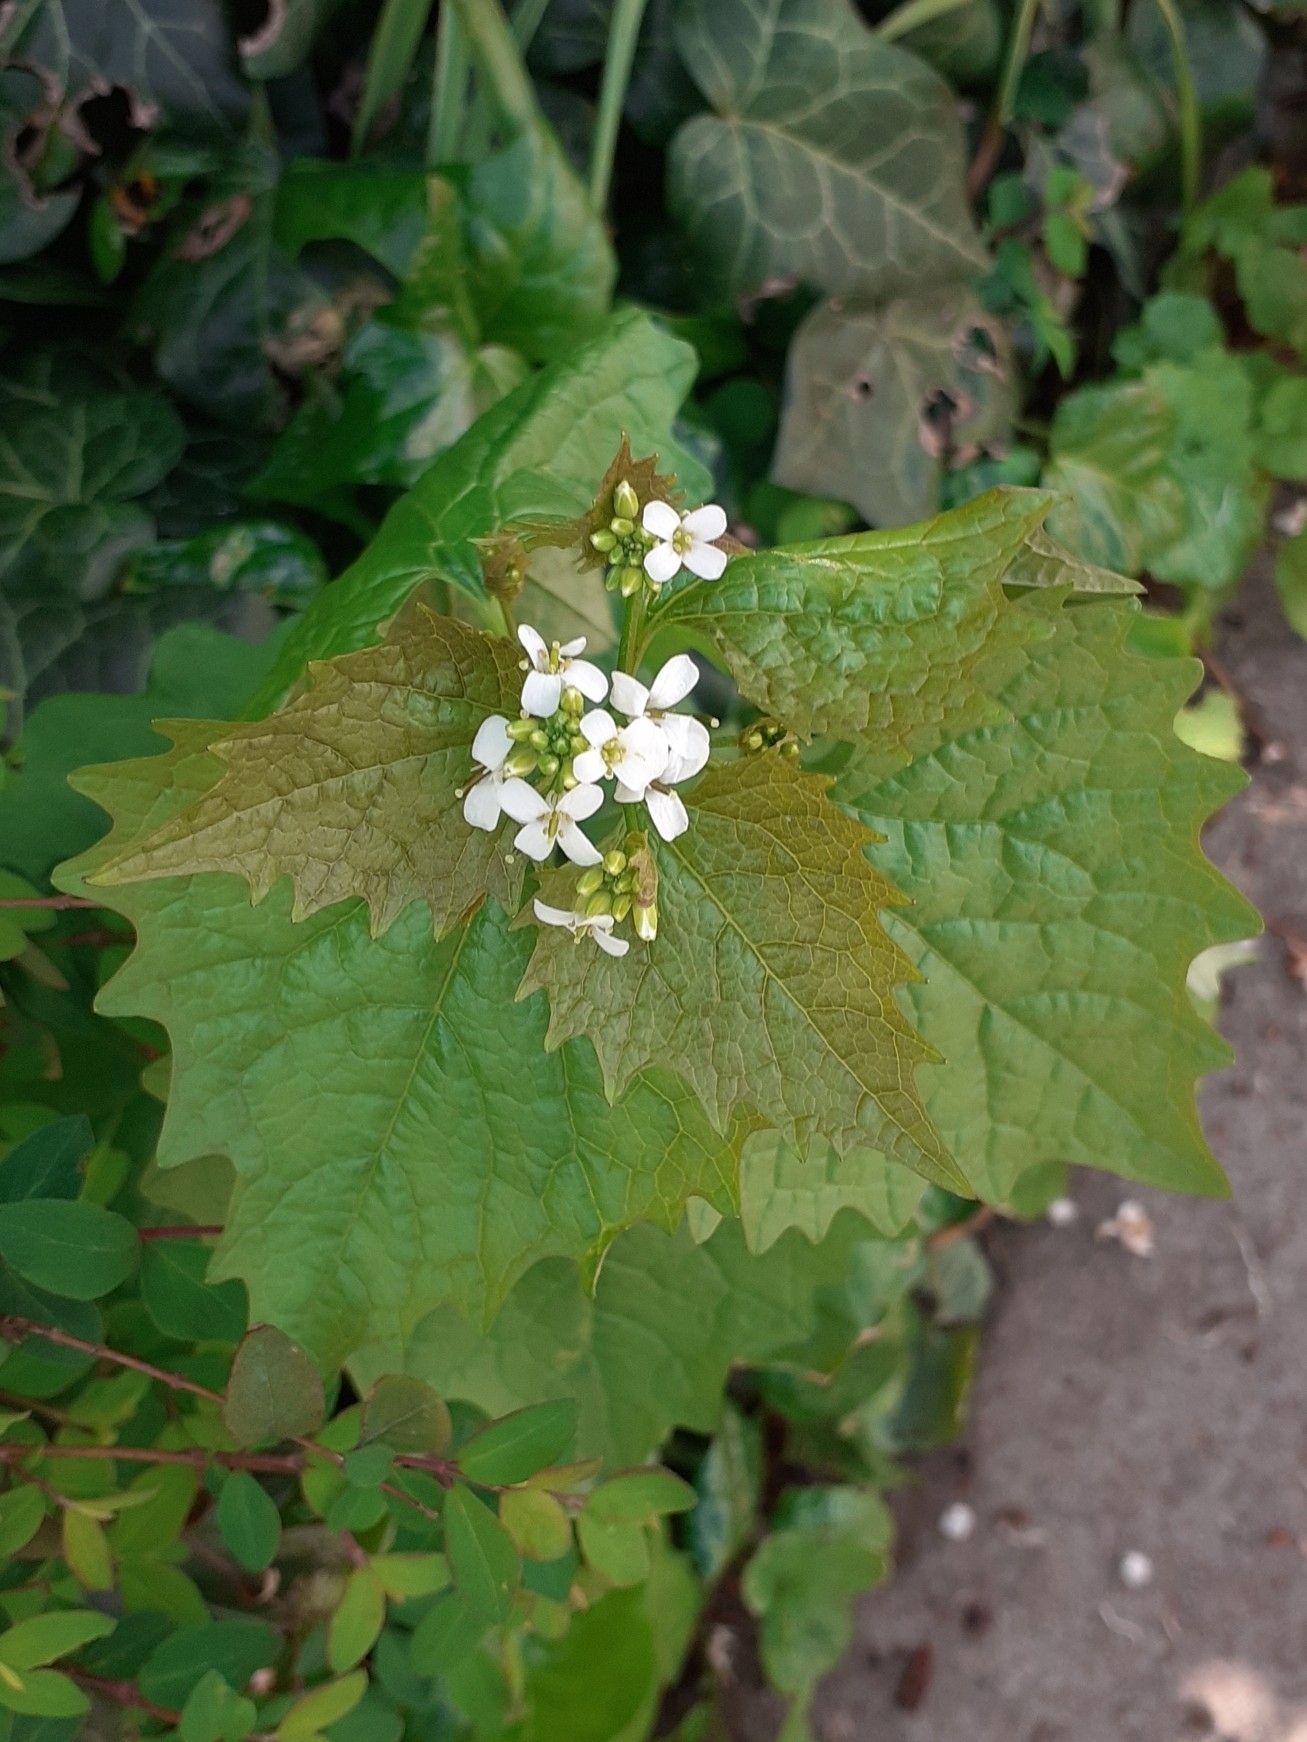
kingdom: Plantae
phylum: Tracheophyta
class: Magnoliopsida
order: Brassicales
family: Brassicaceae
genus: Alliaria
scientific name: Alliaria petiolata
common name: Garlic mustard
